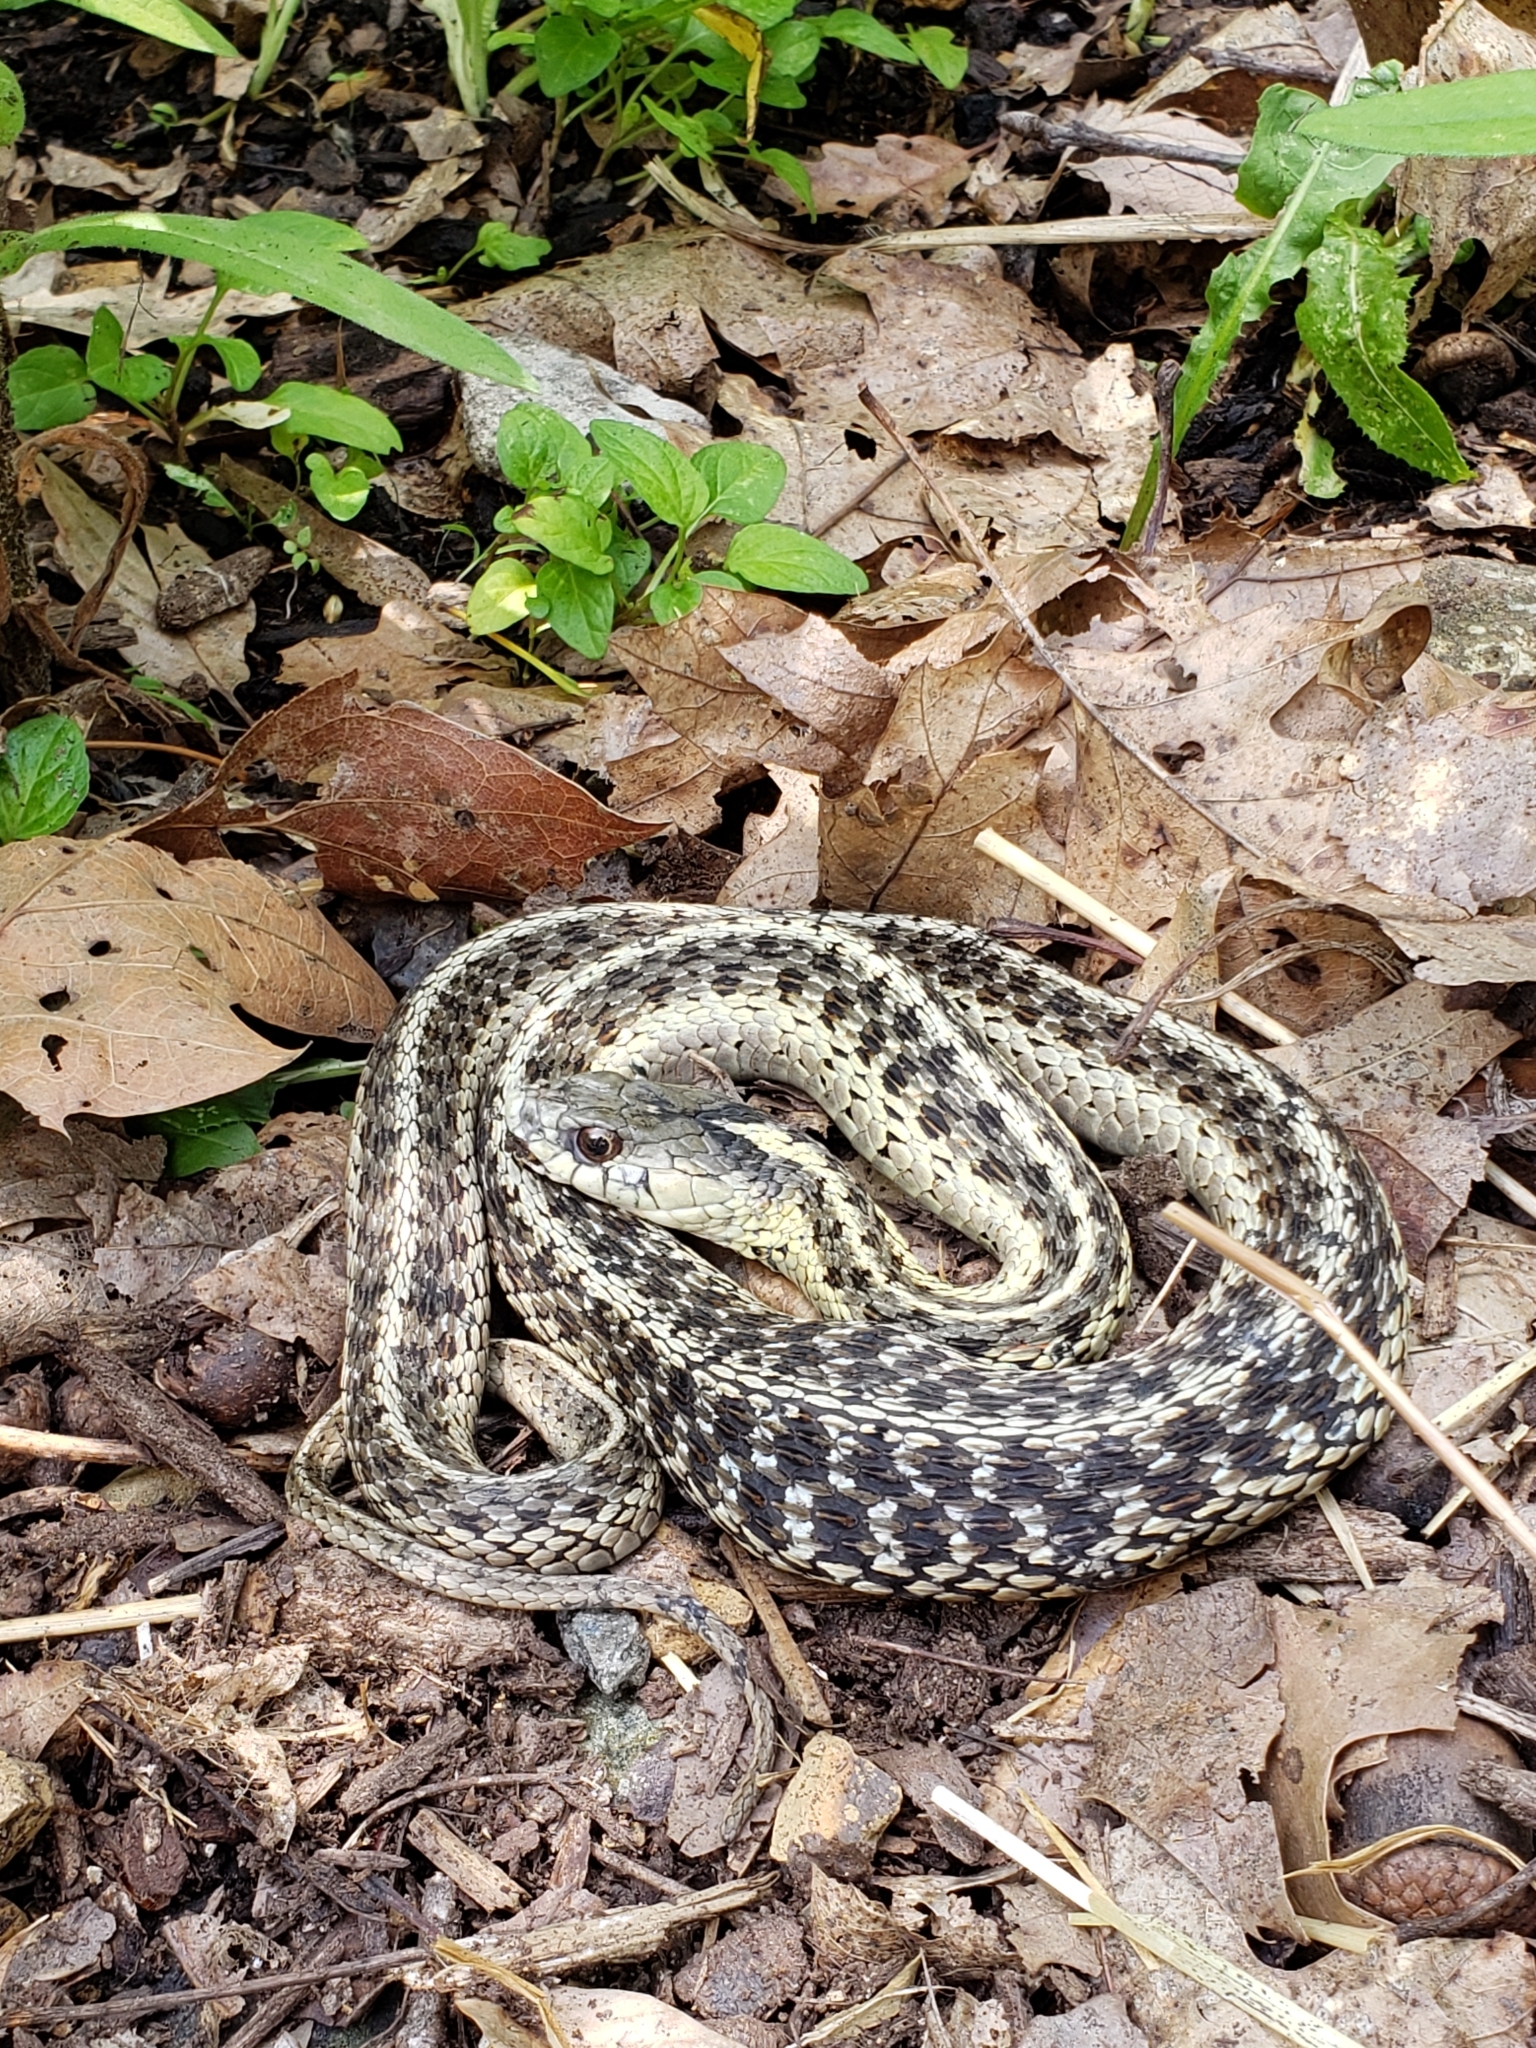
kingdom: Animalia
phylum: Chordata
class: Squamata
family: Colubridae
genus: Thamnophis
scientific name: Thamnophis sirtalis
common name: Common garter snake
